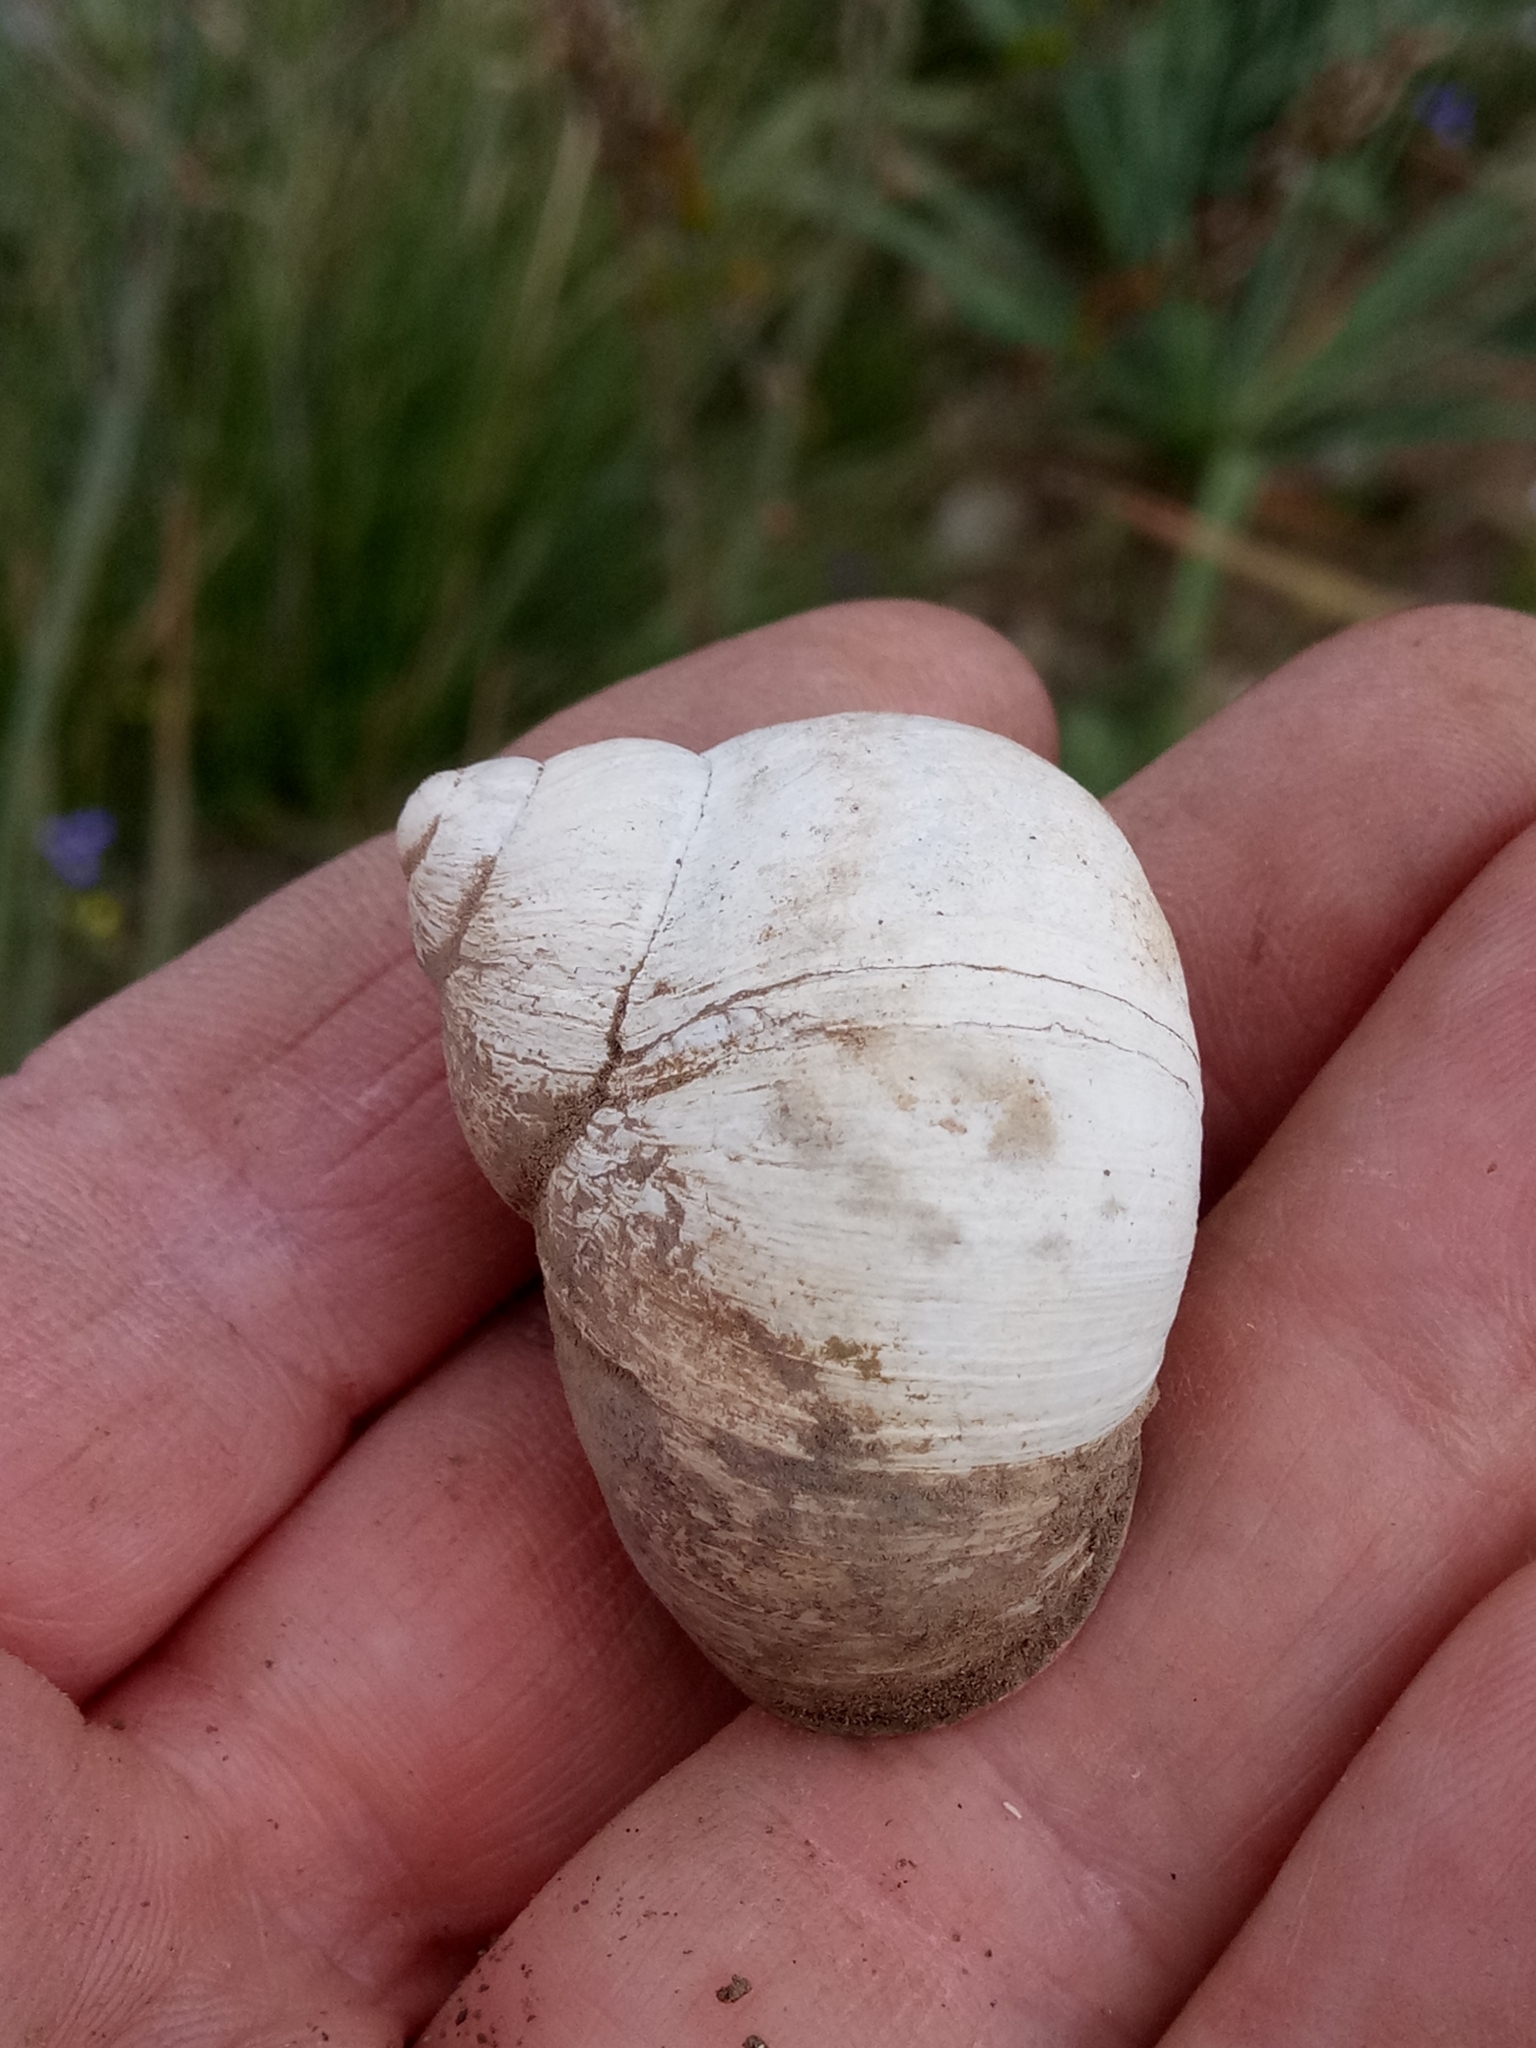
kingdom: Animalia
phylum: Mollusca
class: Gastropoda
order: Stylommatophora
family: Helicidae
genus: Cornu
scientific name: Cornu aspersum
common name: Brown garden snail
